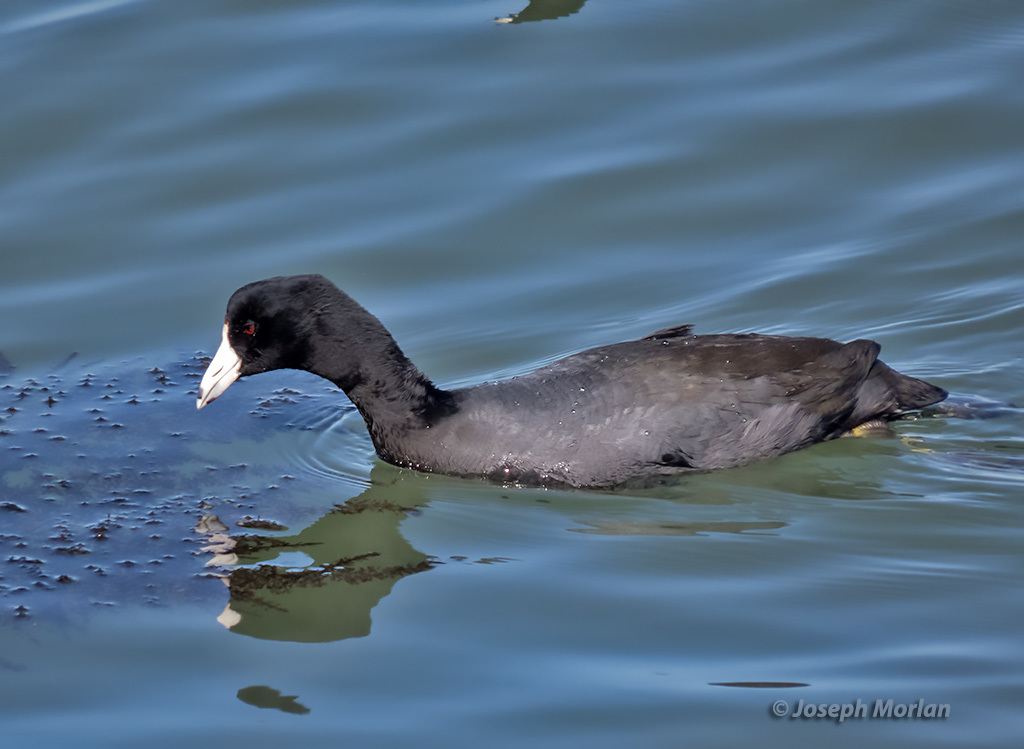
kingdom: Animalia
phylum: Chordata
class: Aves
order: Gruiformes
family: Rallidae
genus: Fulica
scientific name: Fulica americana
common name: American coot
